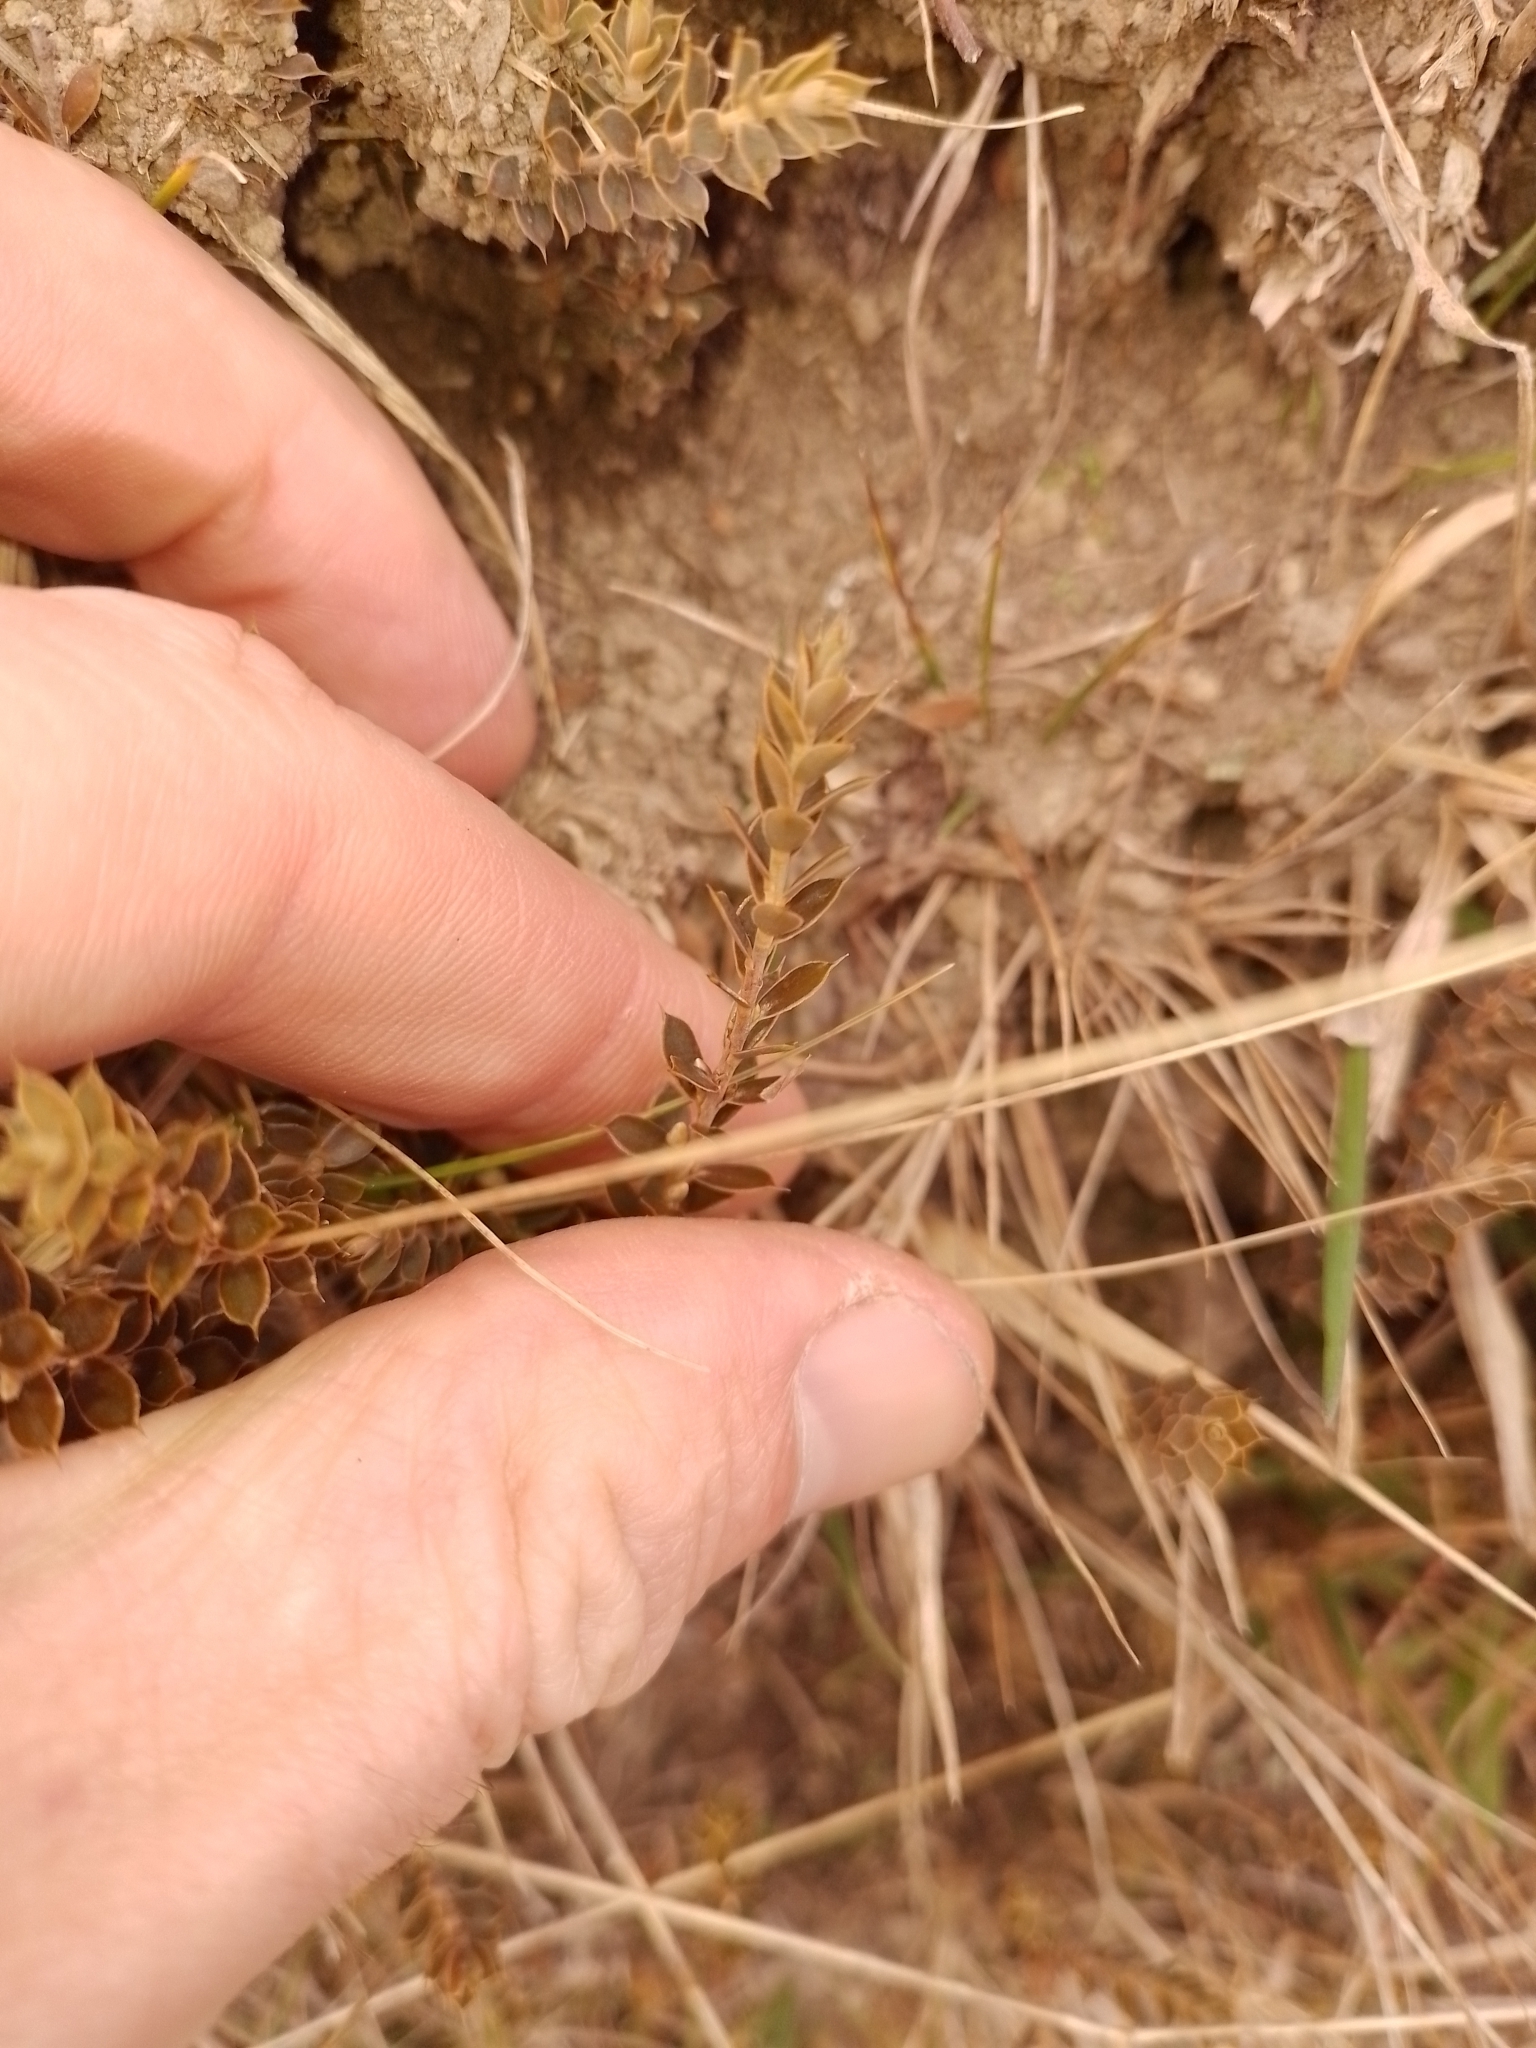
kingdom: Plantae
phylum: Tracheophyta
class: Magnoliopsida
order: Ericales
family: Ericaceae
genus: Styphelia
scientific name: Styphelia nesophila
